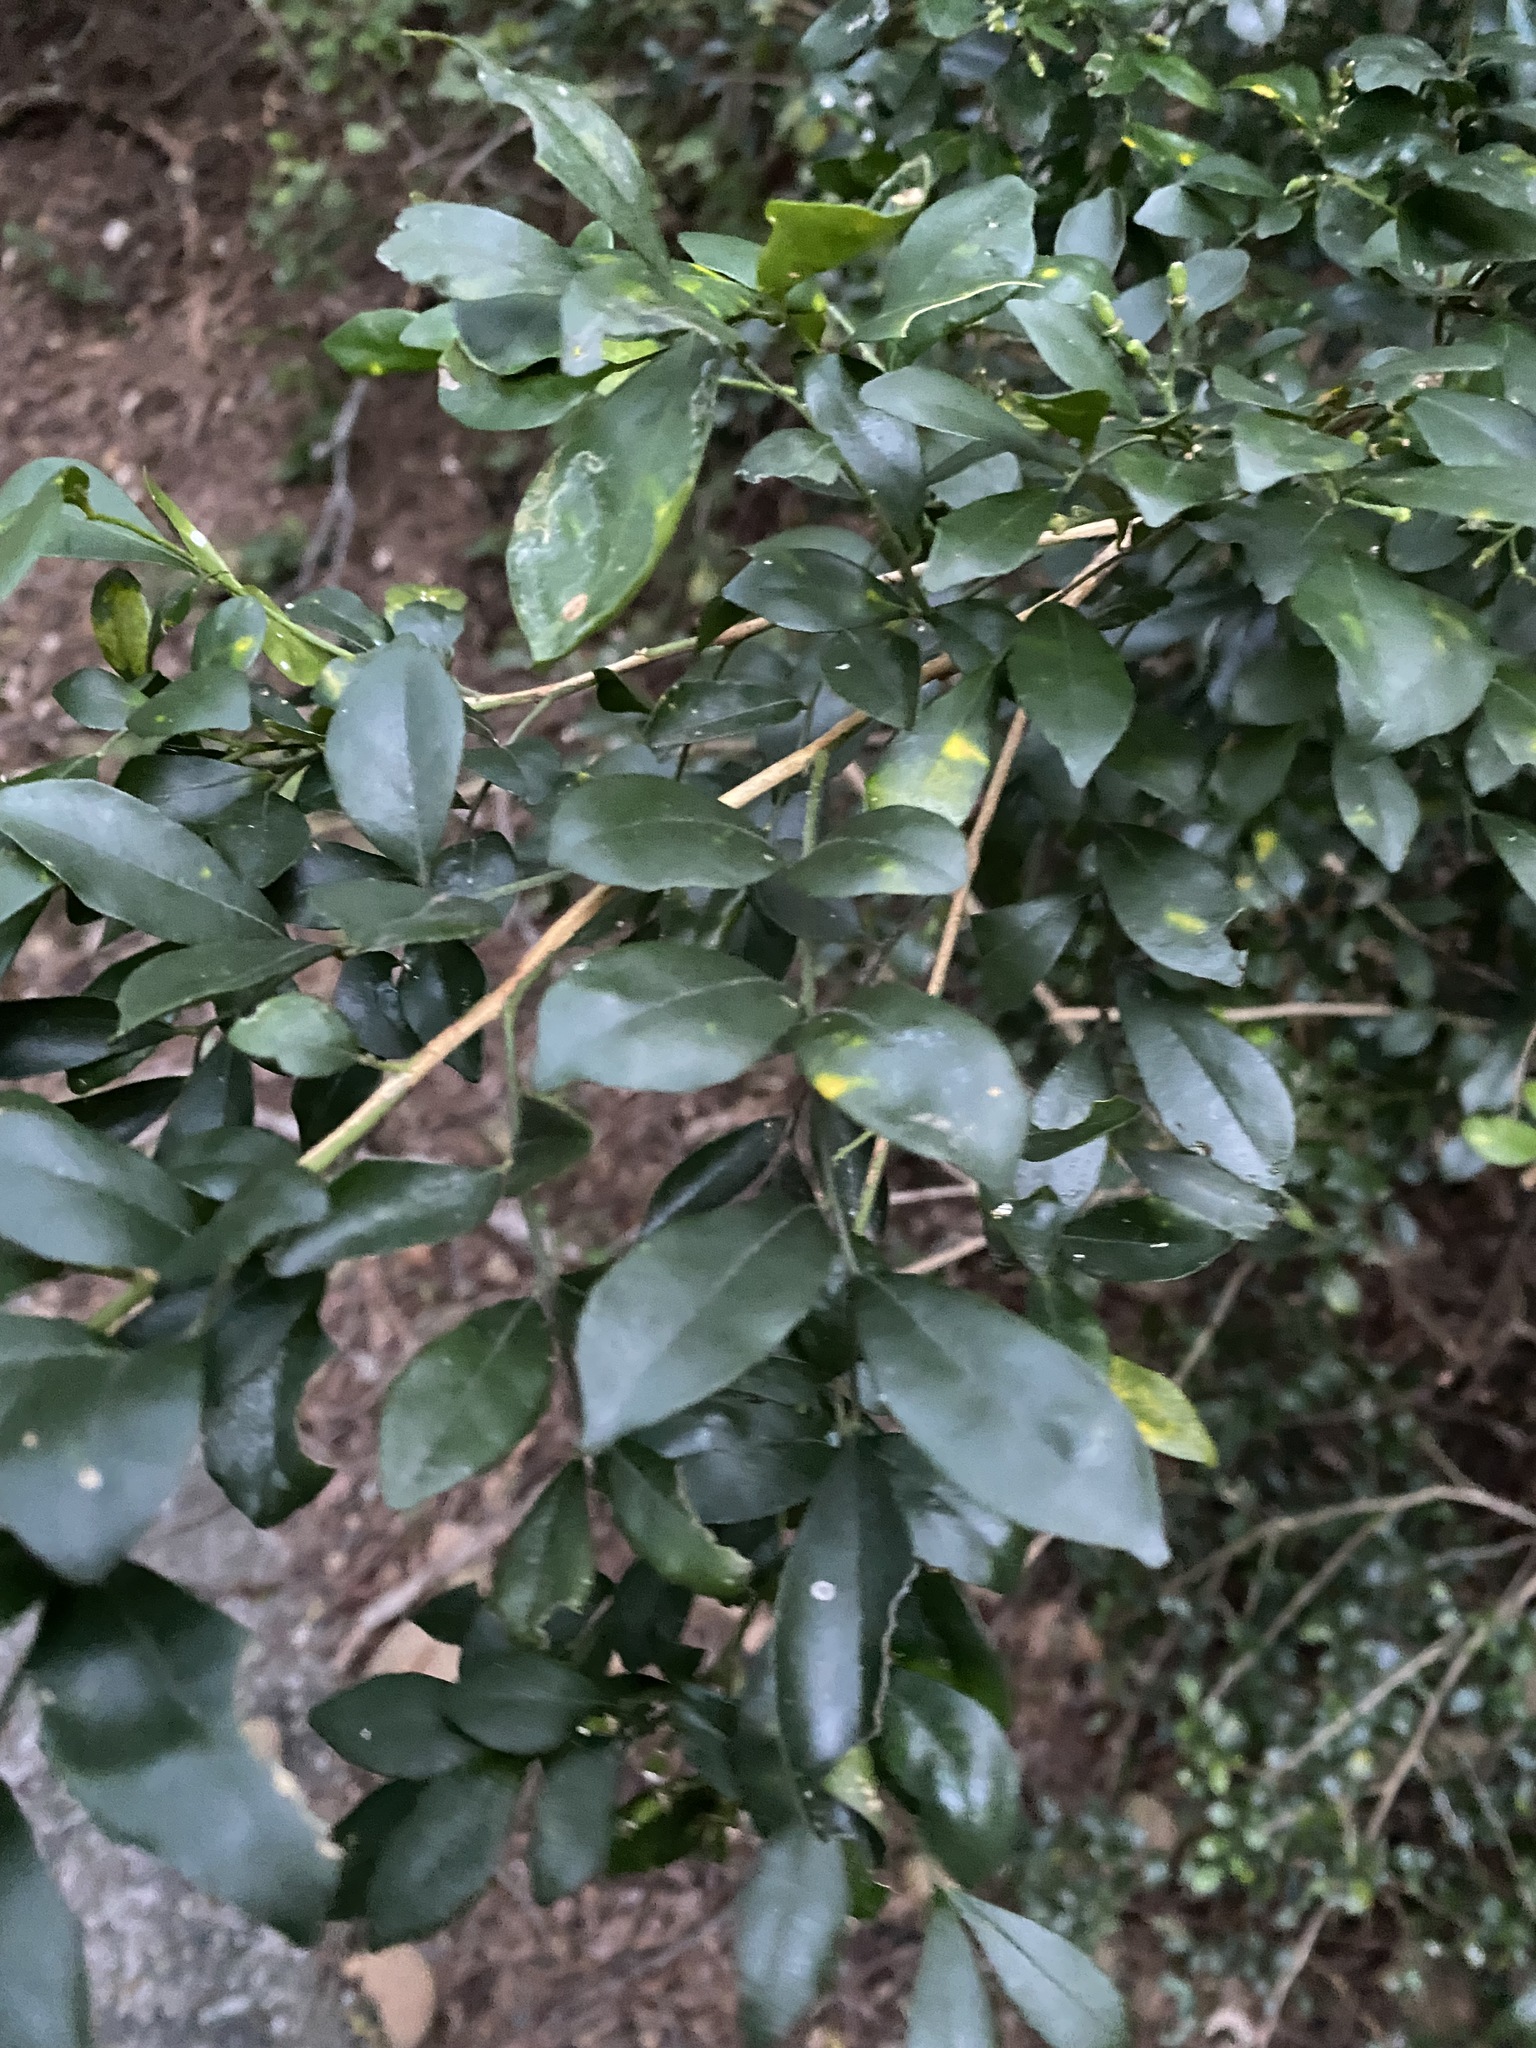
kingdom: Plantae
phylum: Tracheophyta
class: Magnoliopsida
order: Sapindales
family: Rutaceae
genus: Murraya
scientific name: Murraya paniculata
